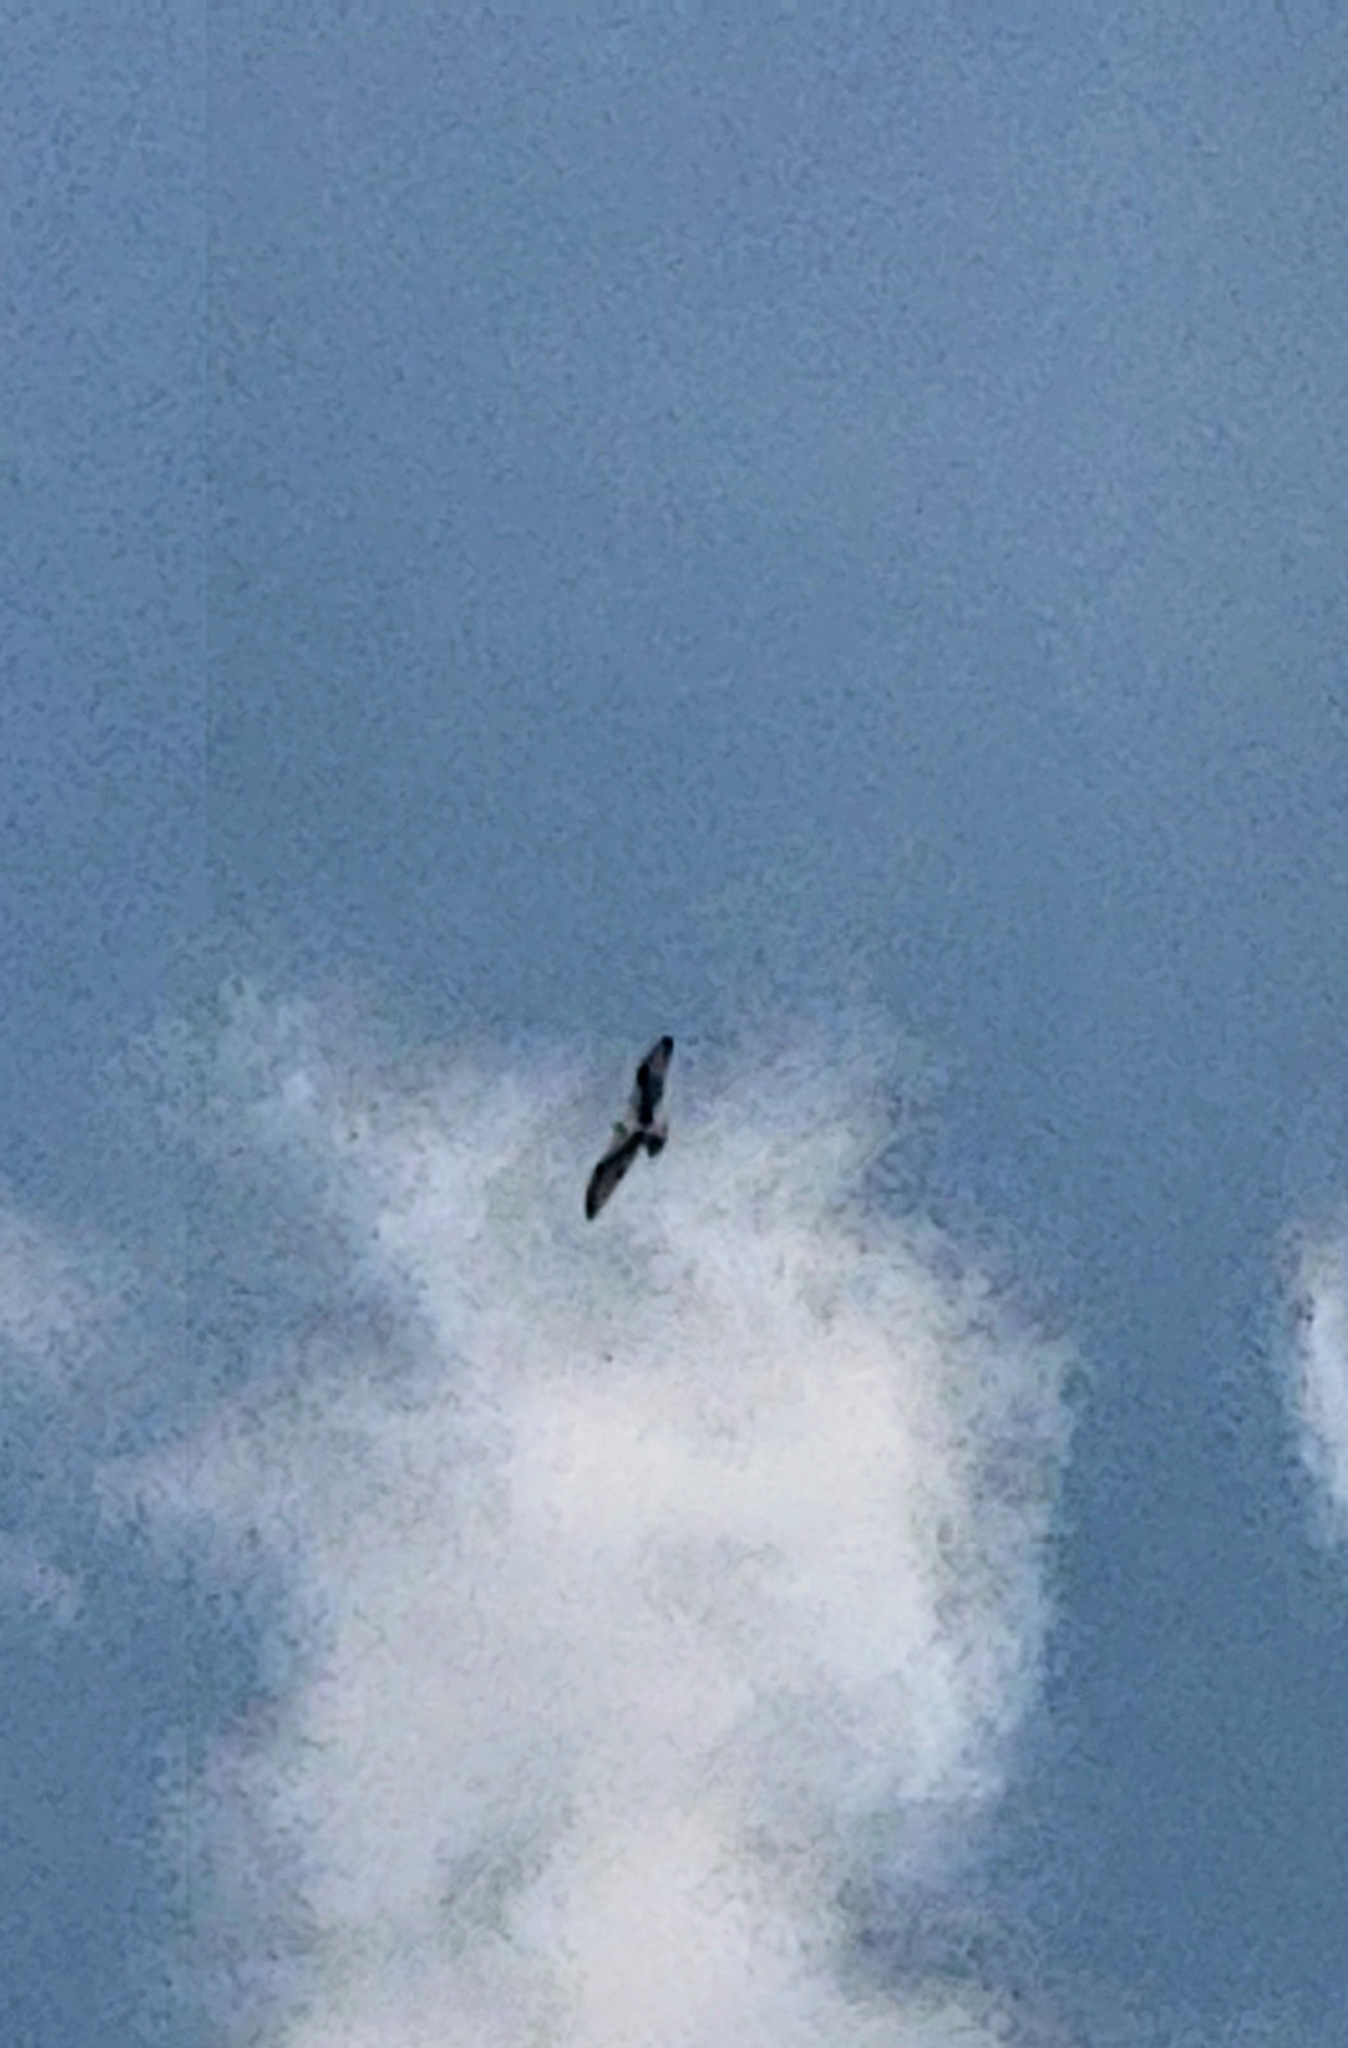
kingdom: Animalia
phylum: Chordata
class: Aves
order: Accipitriformes
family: Pandionidae
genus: Pandion
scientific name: Pandion haliaetus
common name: Osprey
